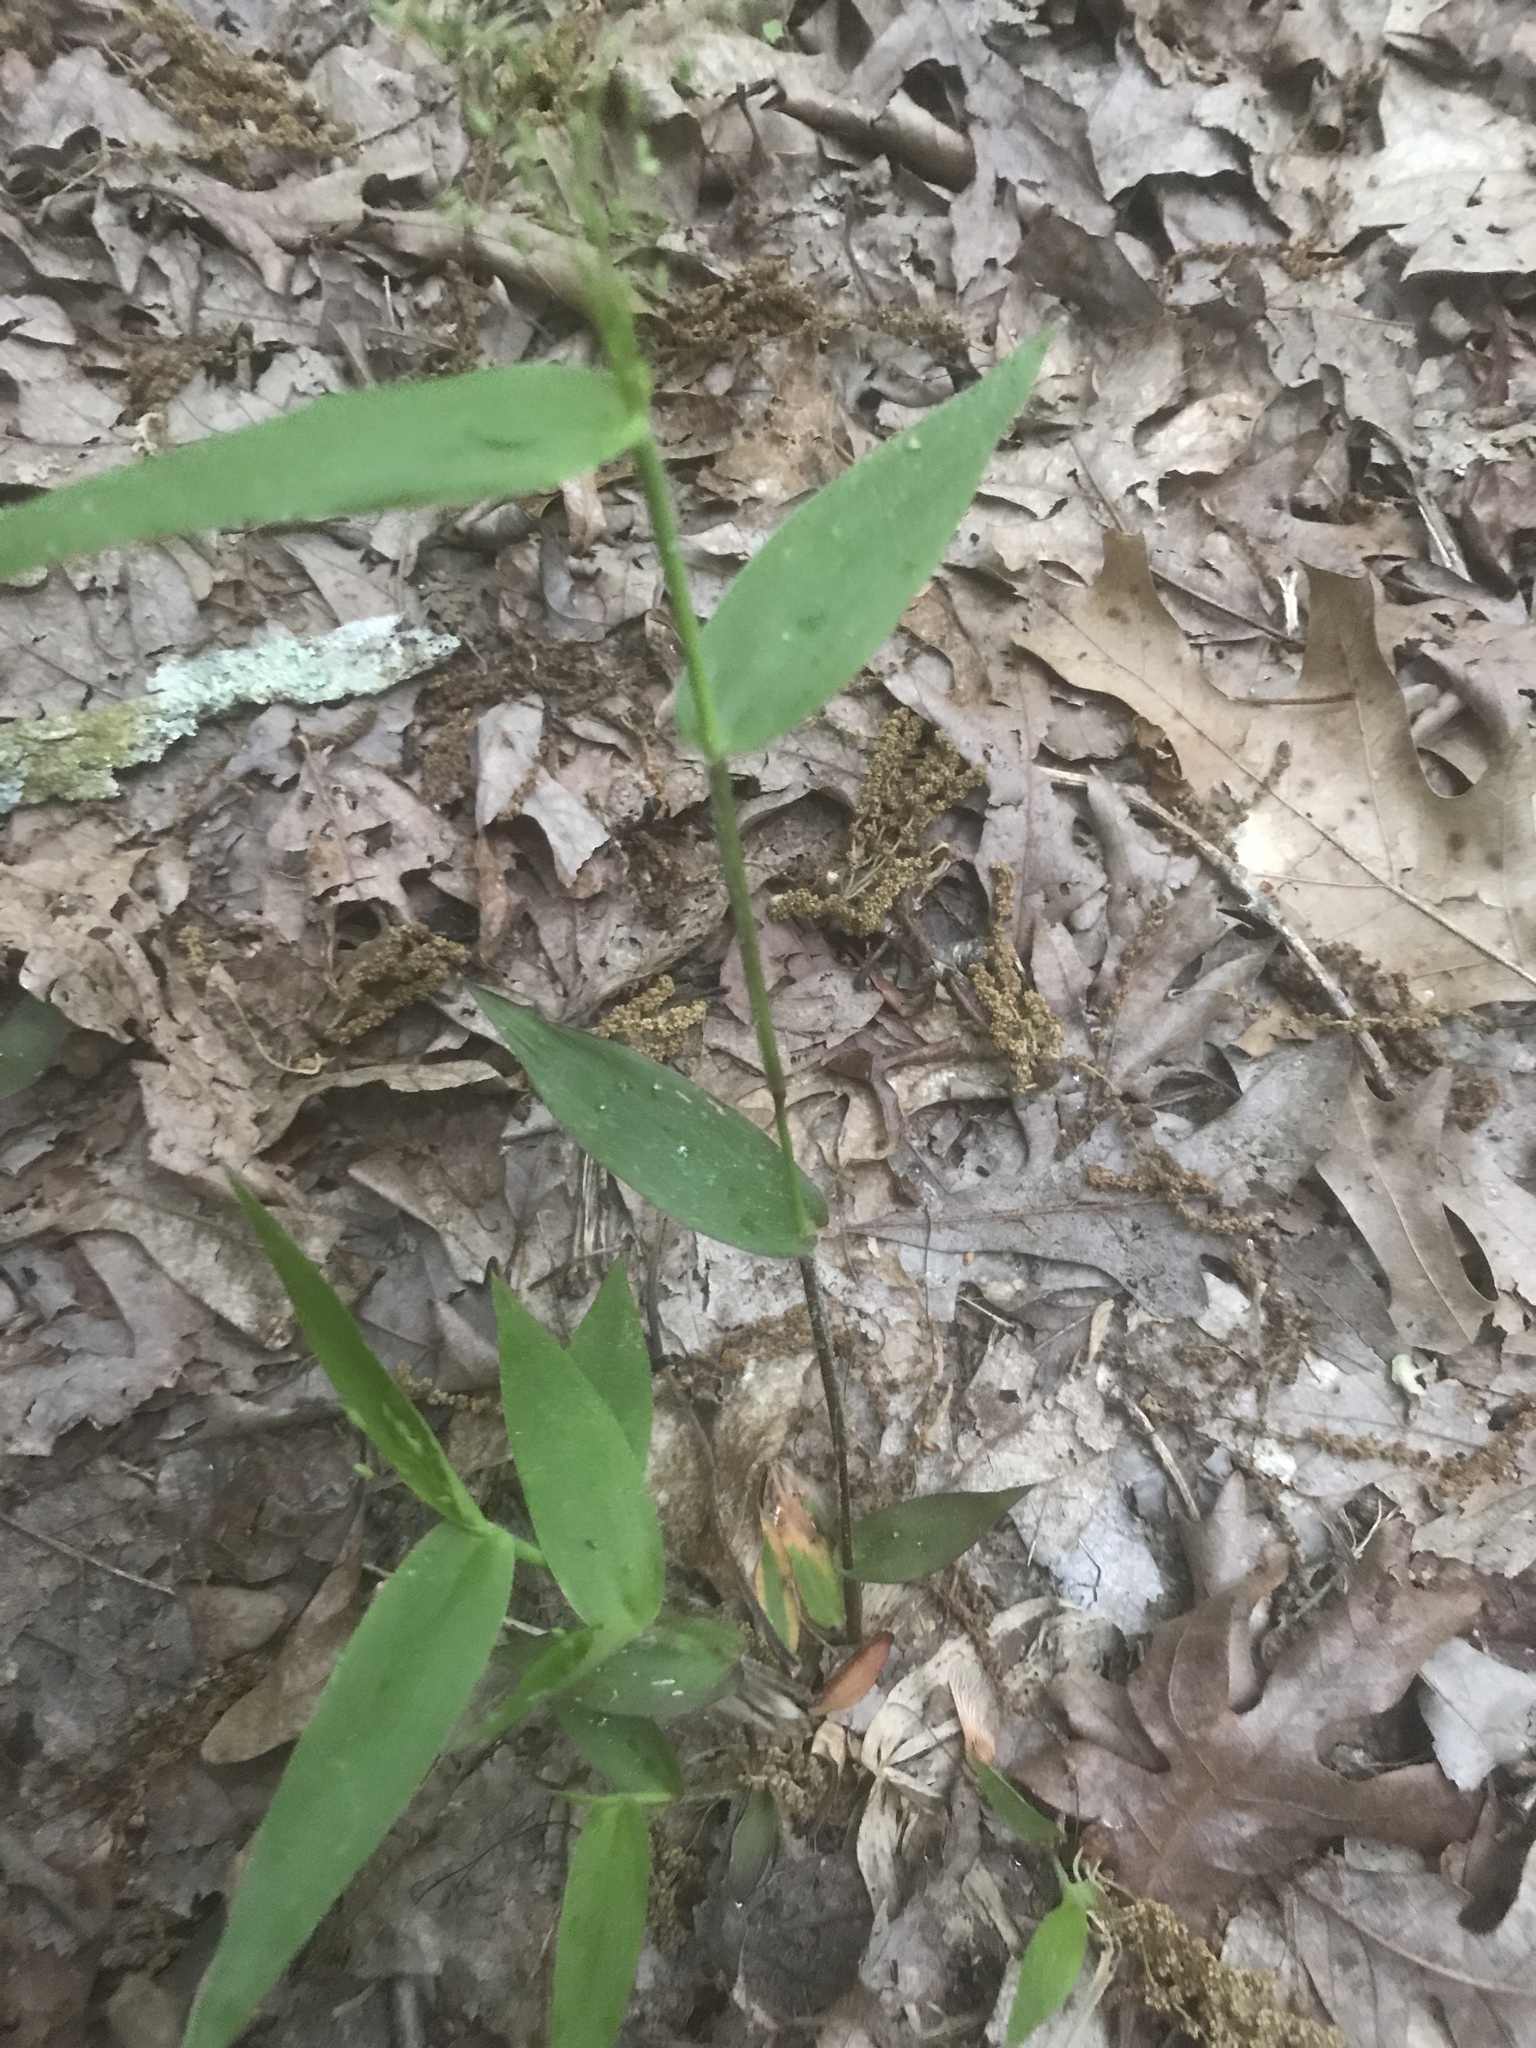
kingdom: Plantae
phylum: Tracheophyta
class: Liliopsida
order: Poales
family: Poaceae
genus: Dichanthelium
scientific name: Dichanthelium commutatum
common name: Variable witchgrass
